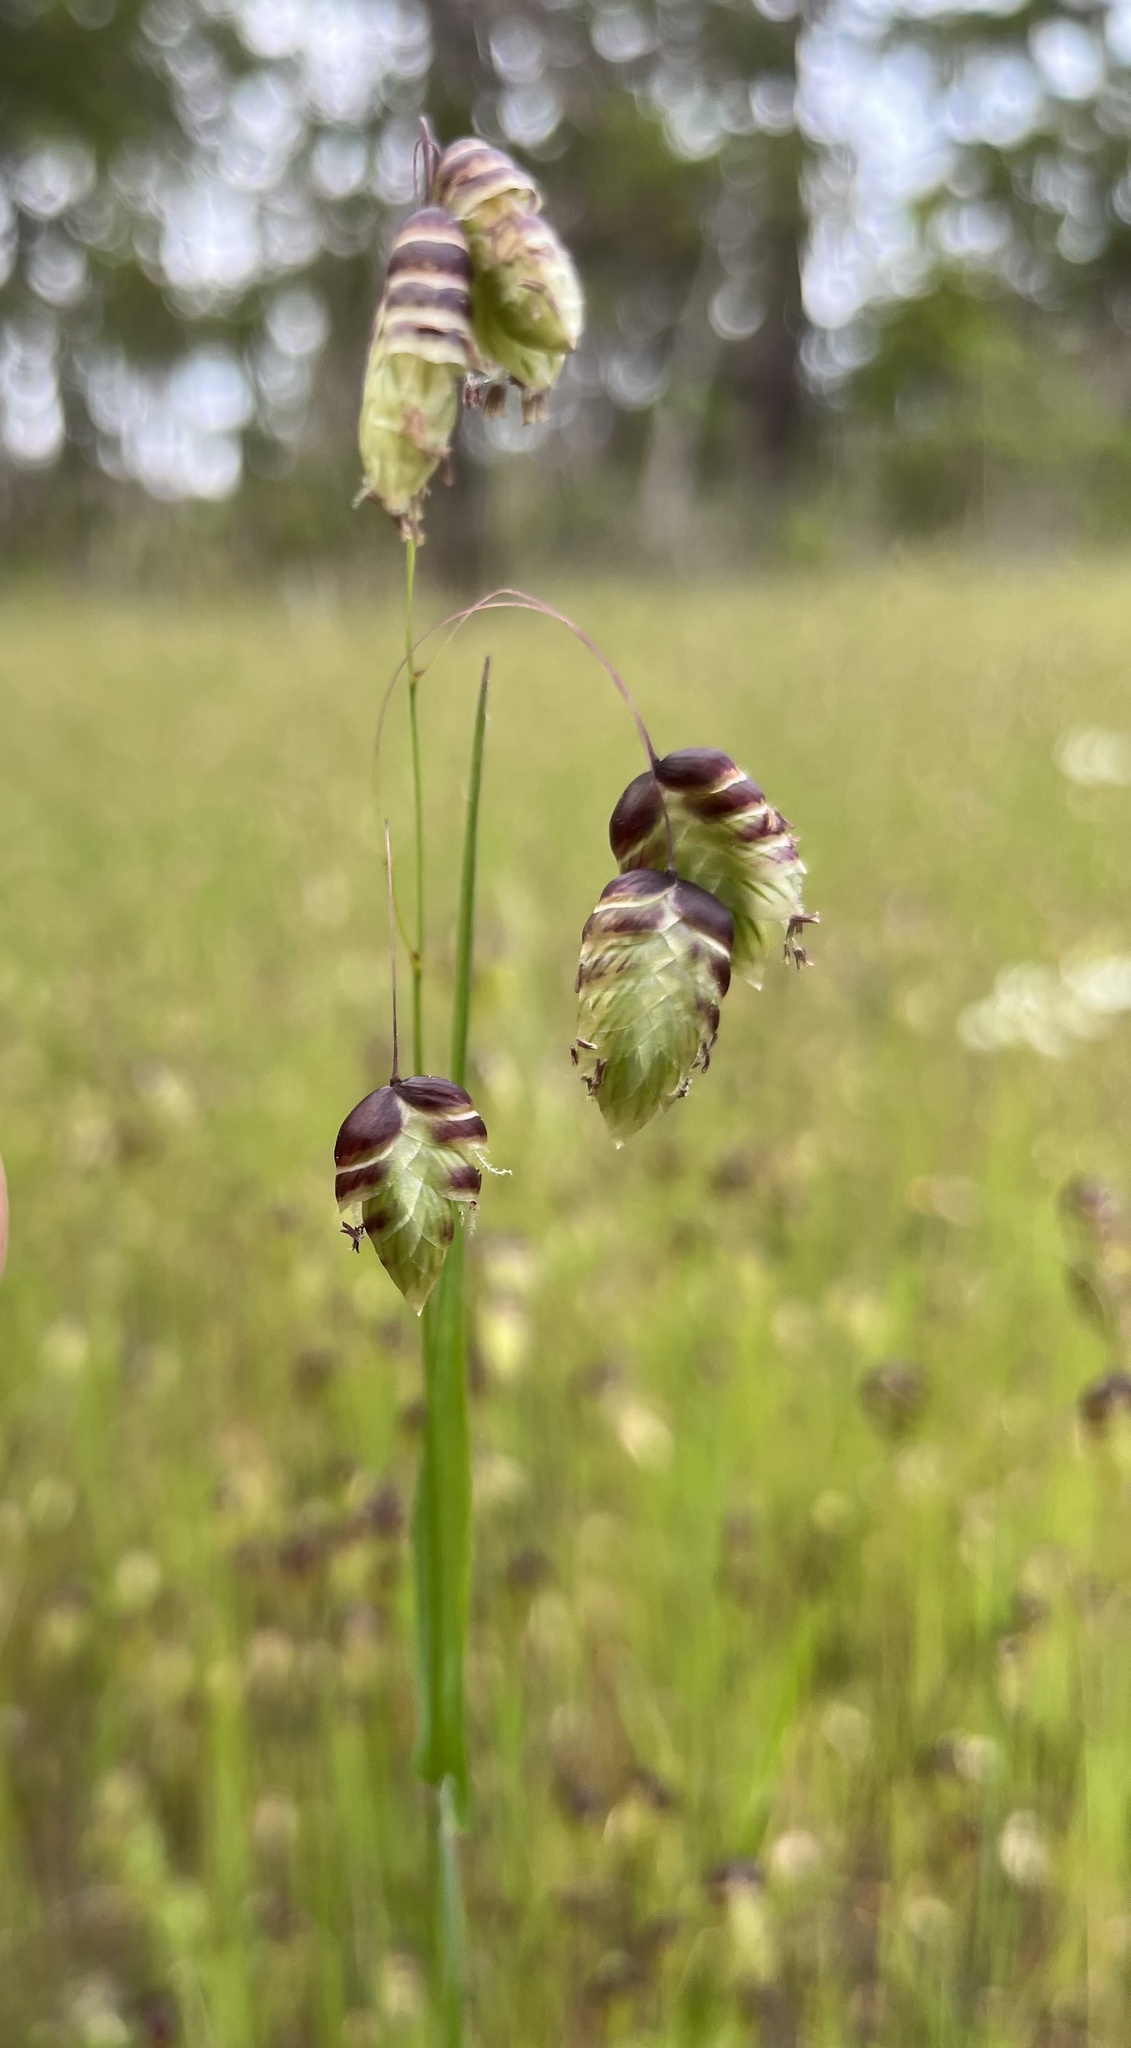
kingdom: Plantae
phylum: Tracheophyta
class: Liliopsida
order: Poales
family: Poaceae
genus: Briza
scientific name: Briza maxima
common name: Big quakinggrass
